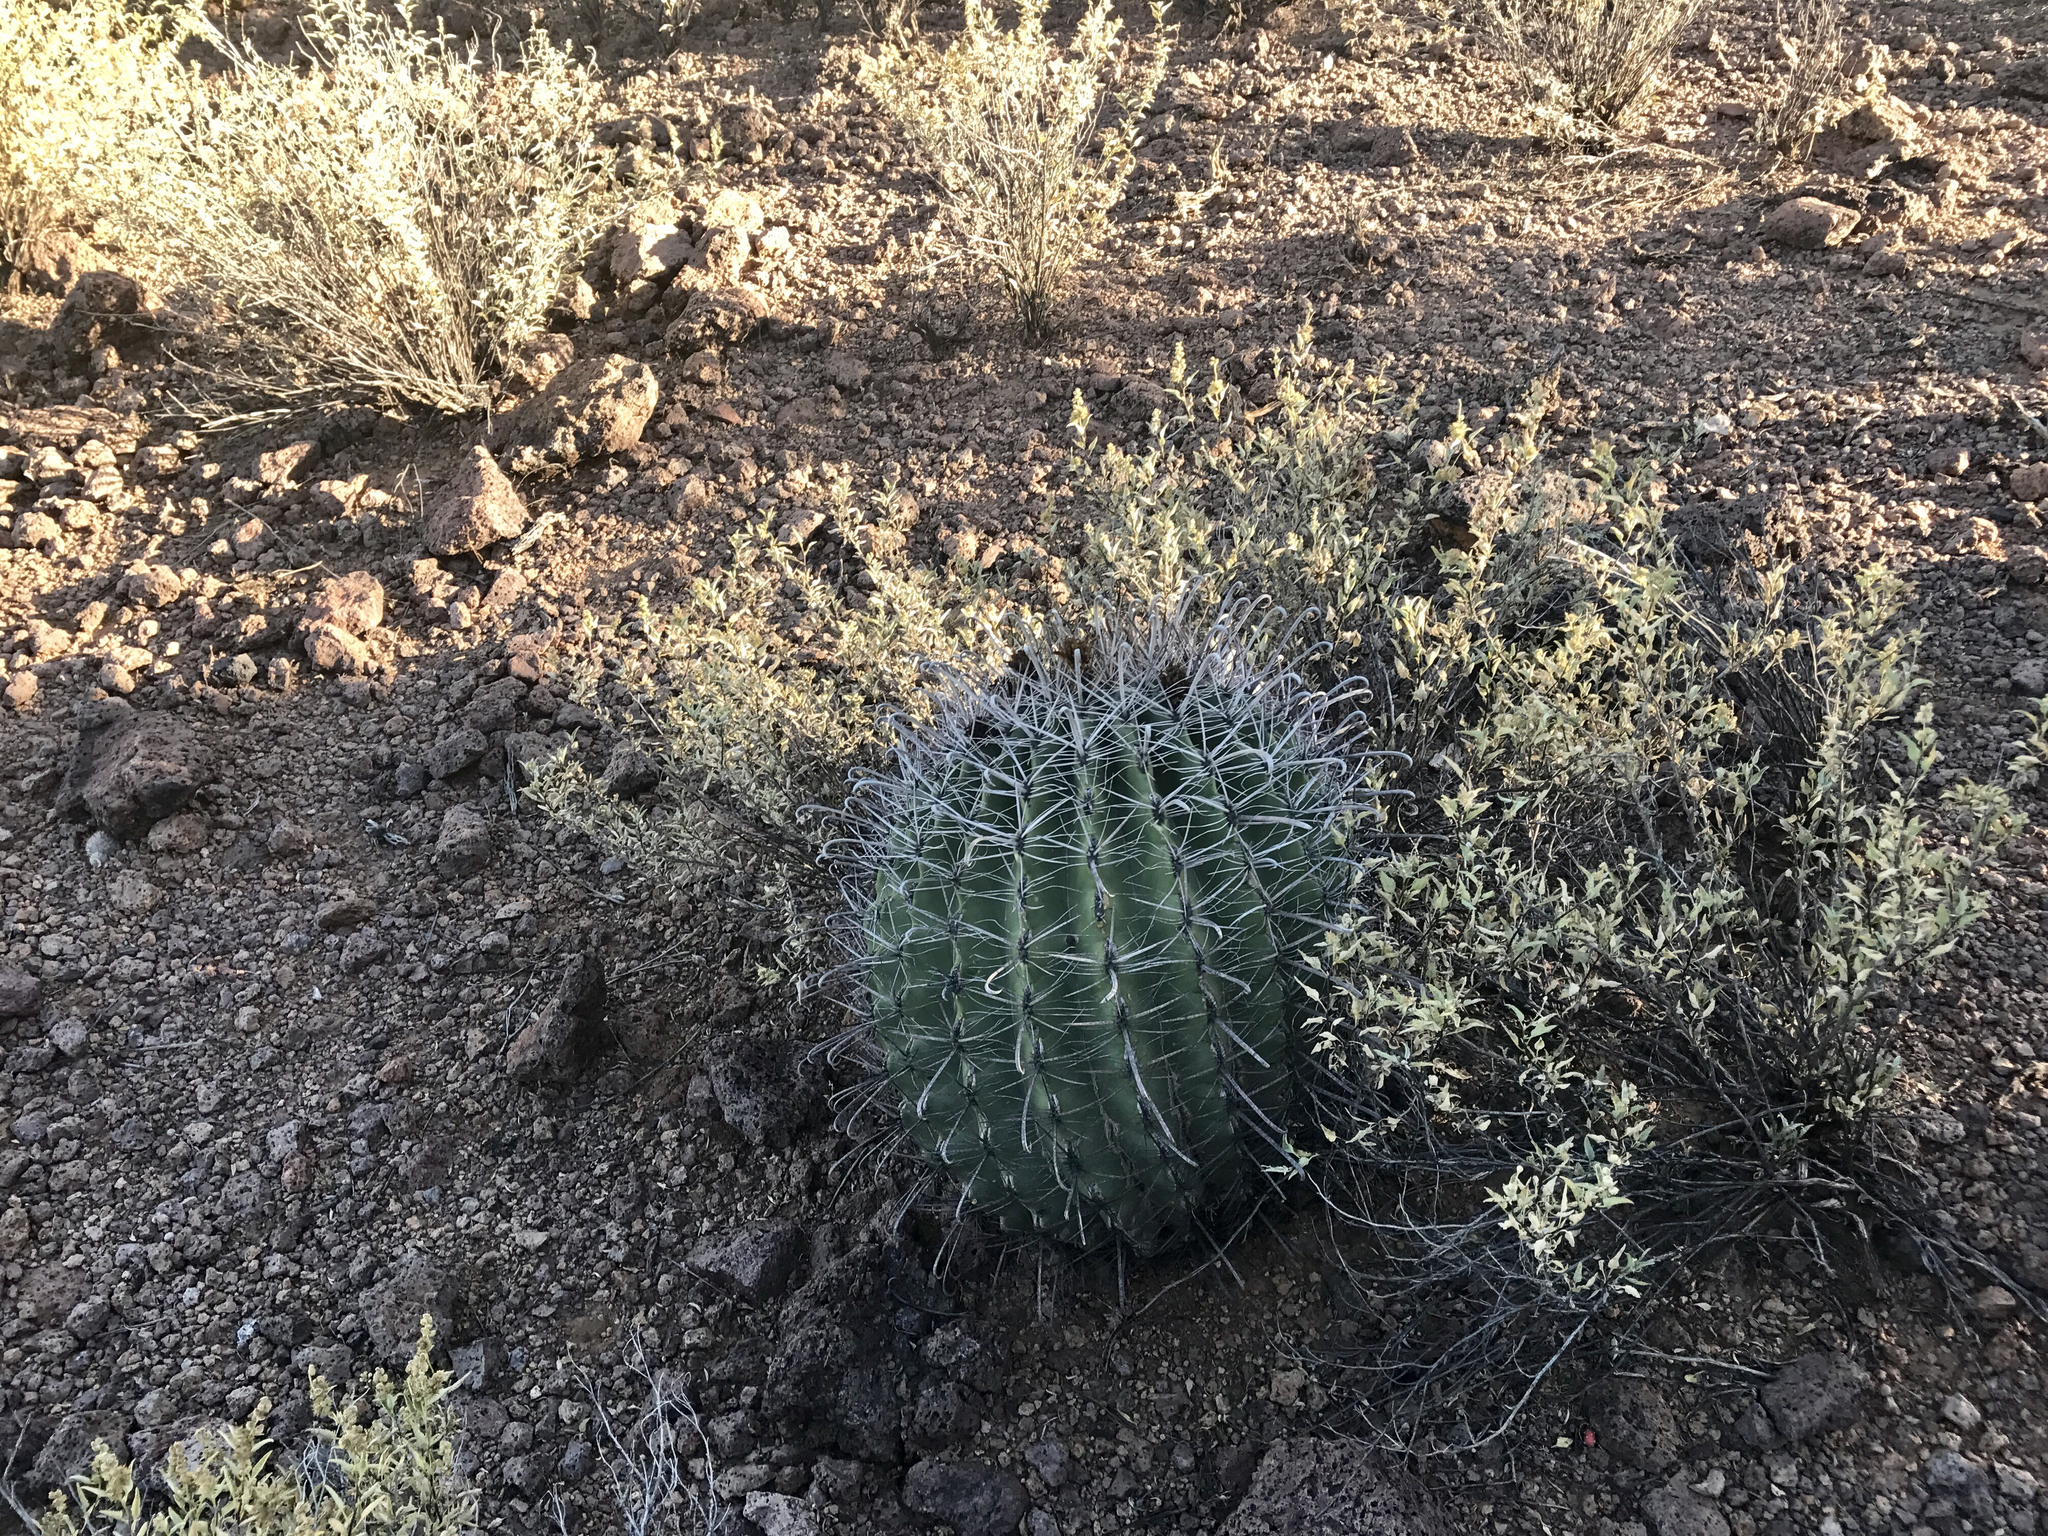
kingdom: Plantae
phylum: Tracheophyta
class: Magnoliopsida
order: Caryophyllales
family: Cactaceae
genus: Ferocactus
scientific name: Ferocactus wislizeni
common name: Candy barrel cactus
